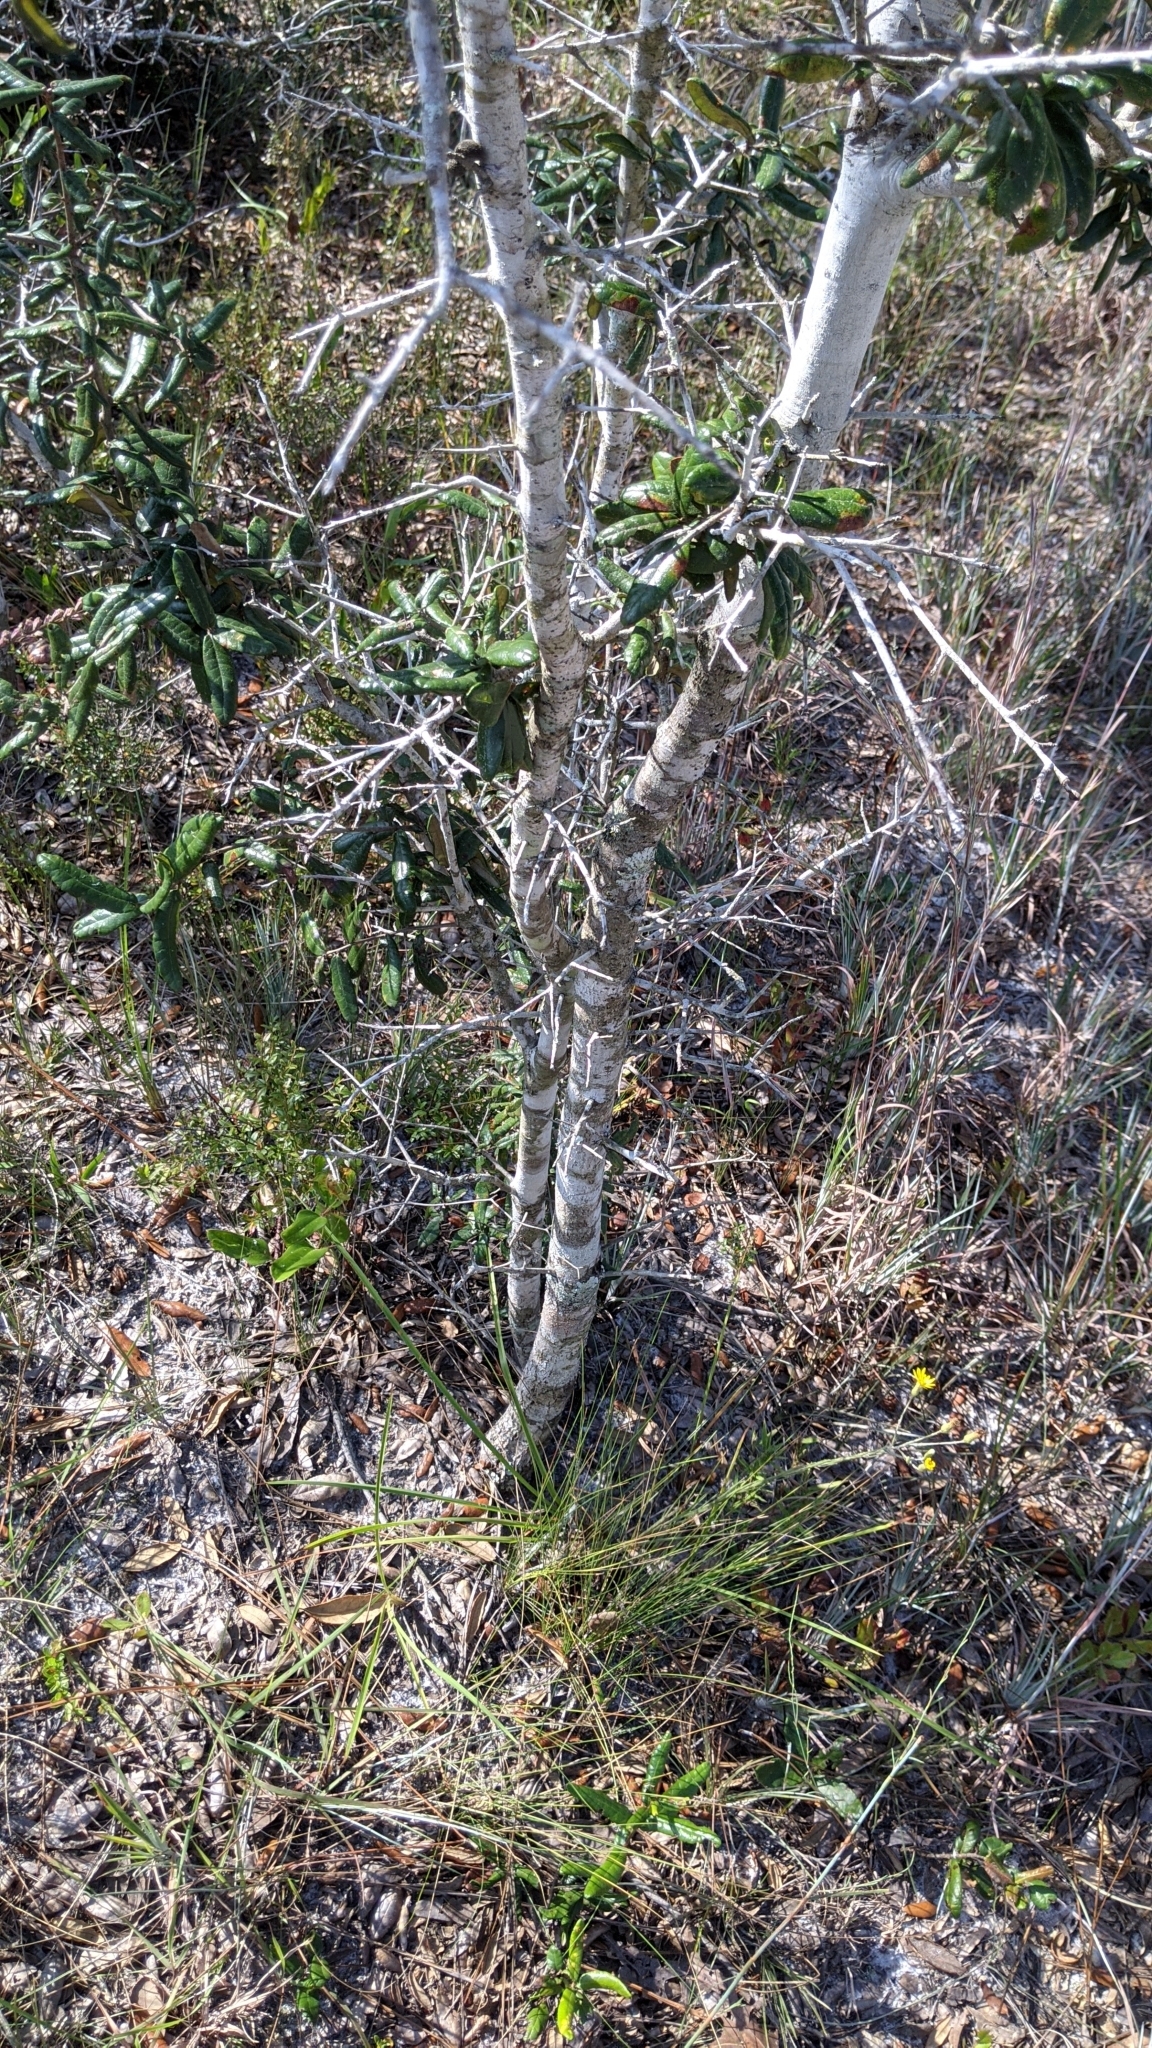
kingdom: Plantae
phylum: Tracheophyta
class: Magnoliopsida
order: Fagales
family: Fagaceae
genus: Quercus
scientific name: Quercus geminata
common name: Sand live oak
